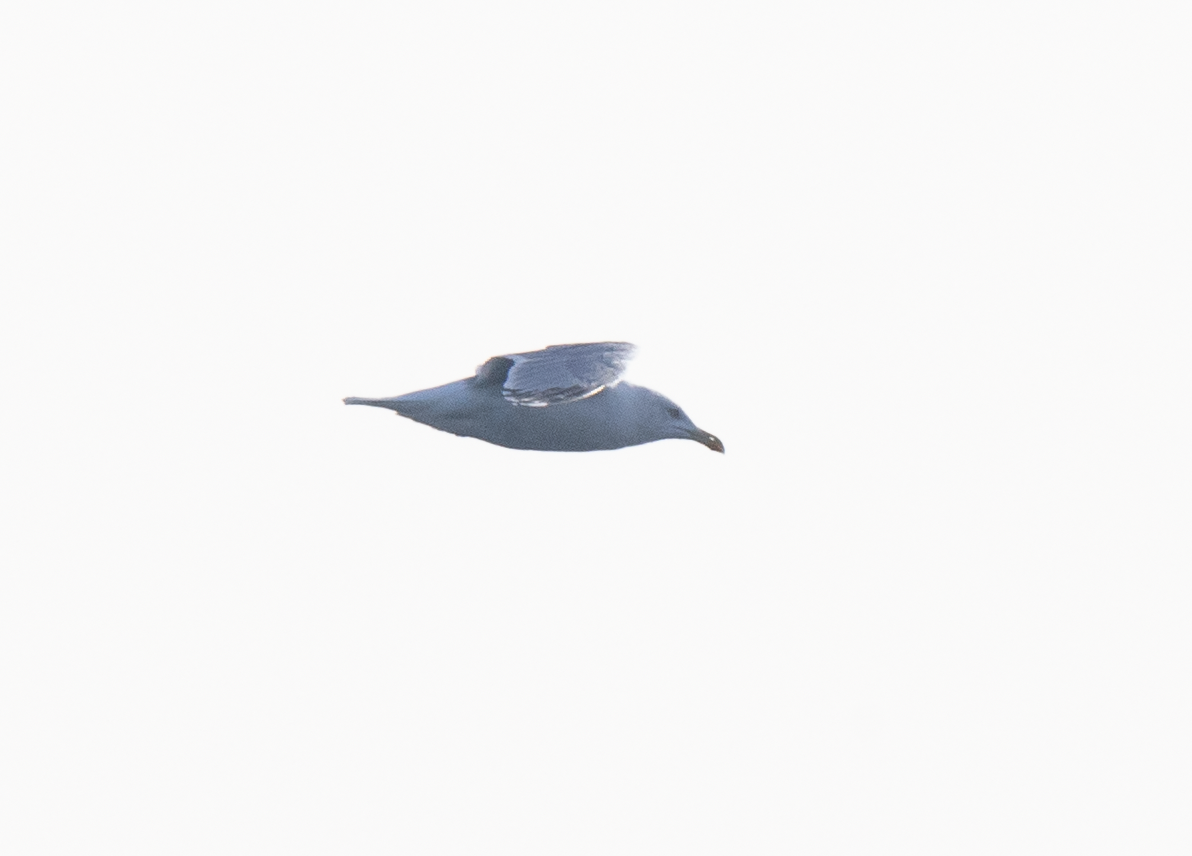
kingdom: Animalia
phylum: Chordata
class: Aves
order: Charadriiformes
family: Laridae
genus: Larus
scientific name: Larus michahellis
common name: Yellow-legged gull
